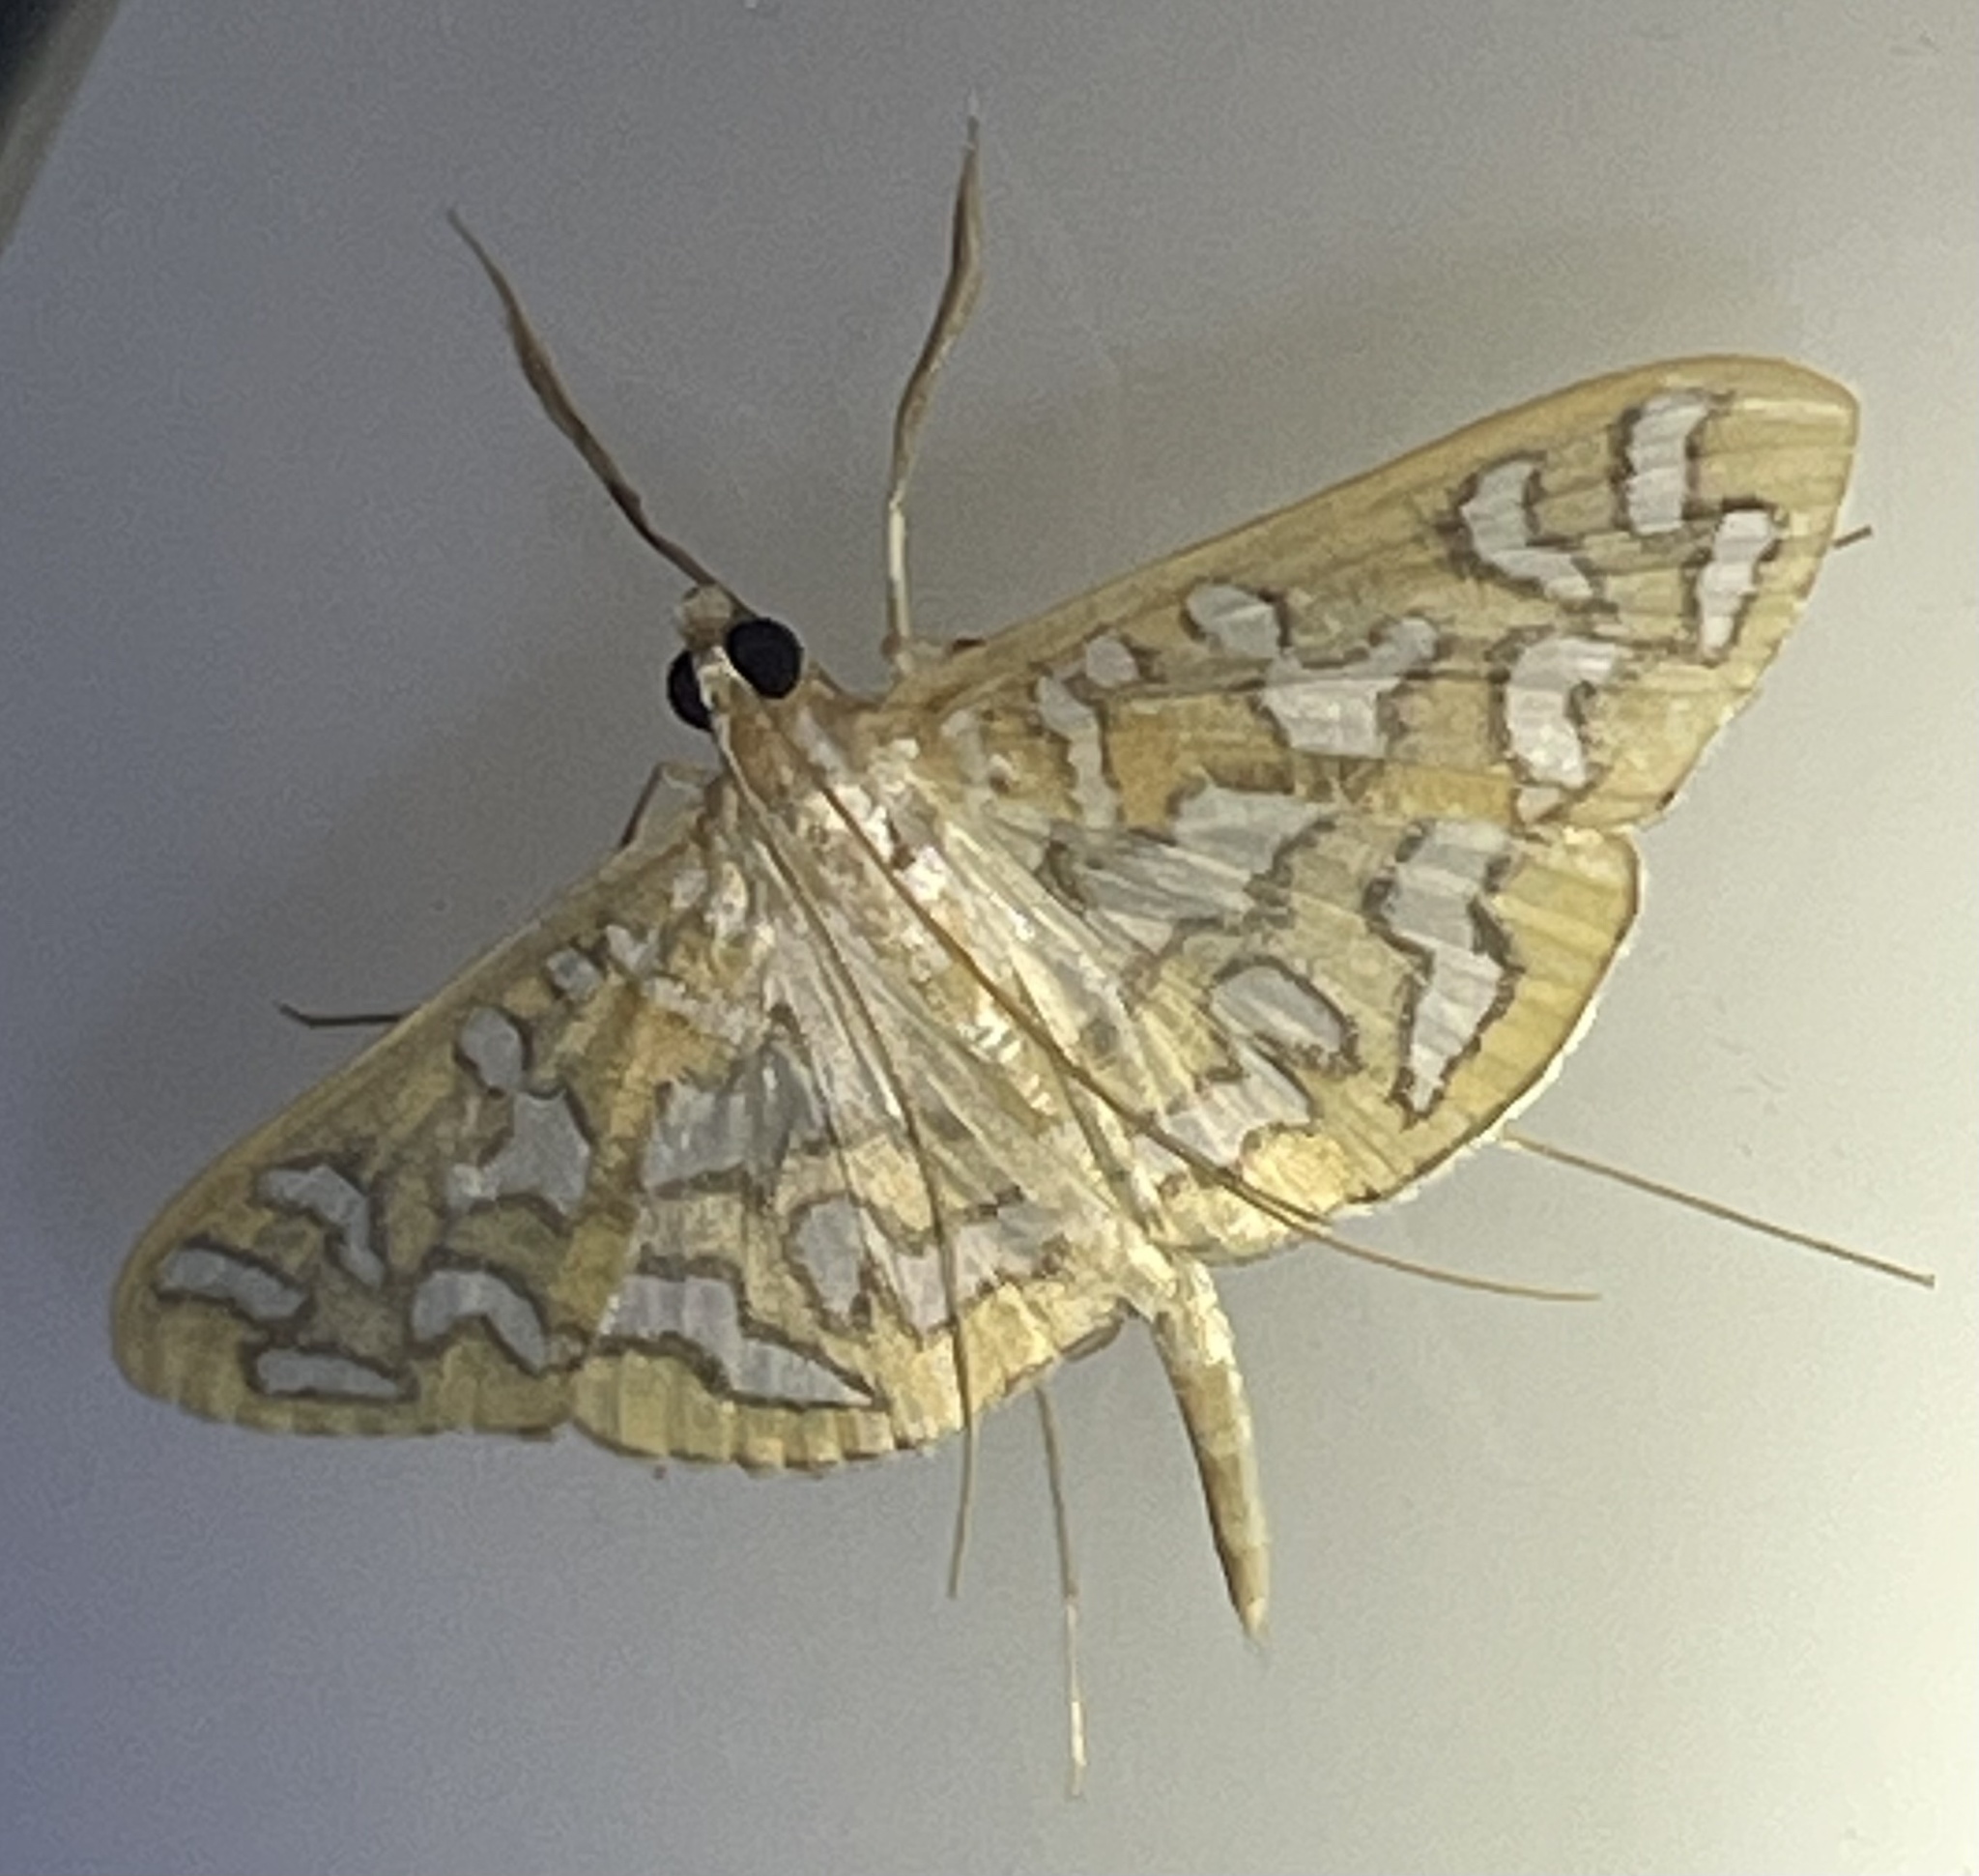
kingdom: Animalia
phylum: Arthropoda
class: Insecta
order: Lepidoptera
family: Crambidae
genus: Nausinoe
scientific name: Nausinoe perspectata
